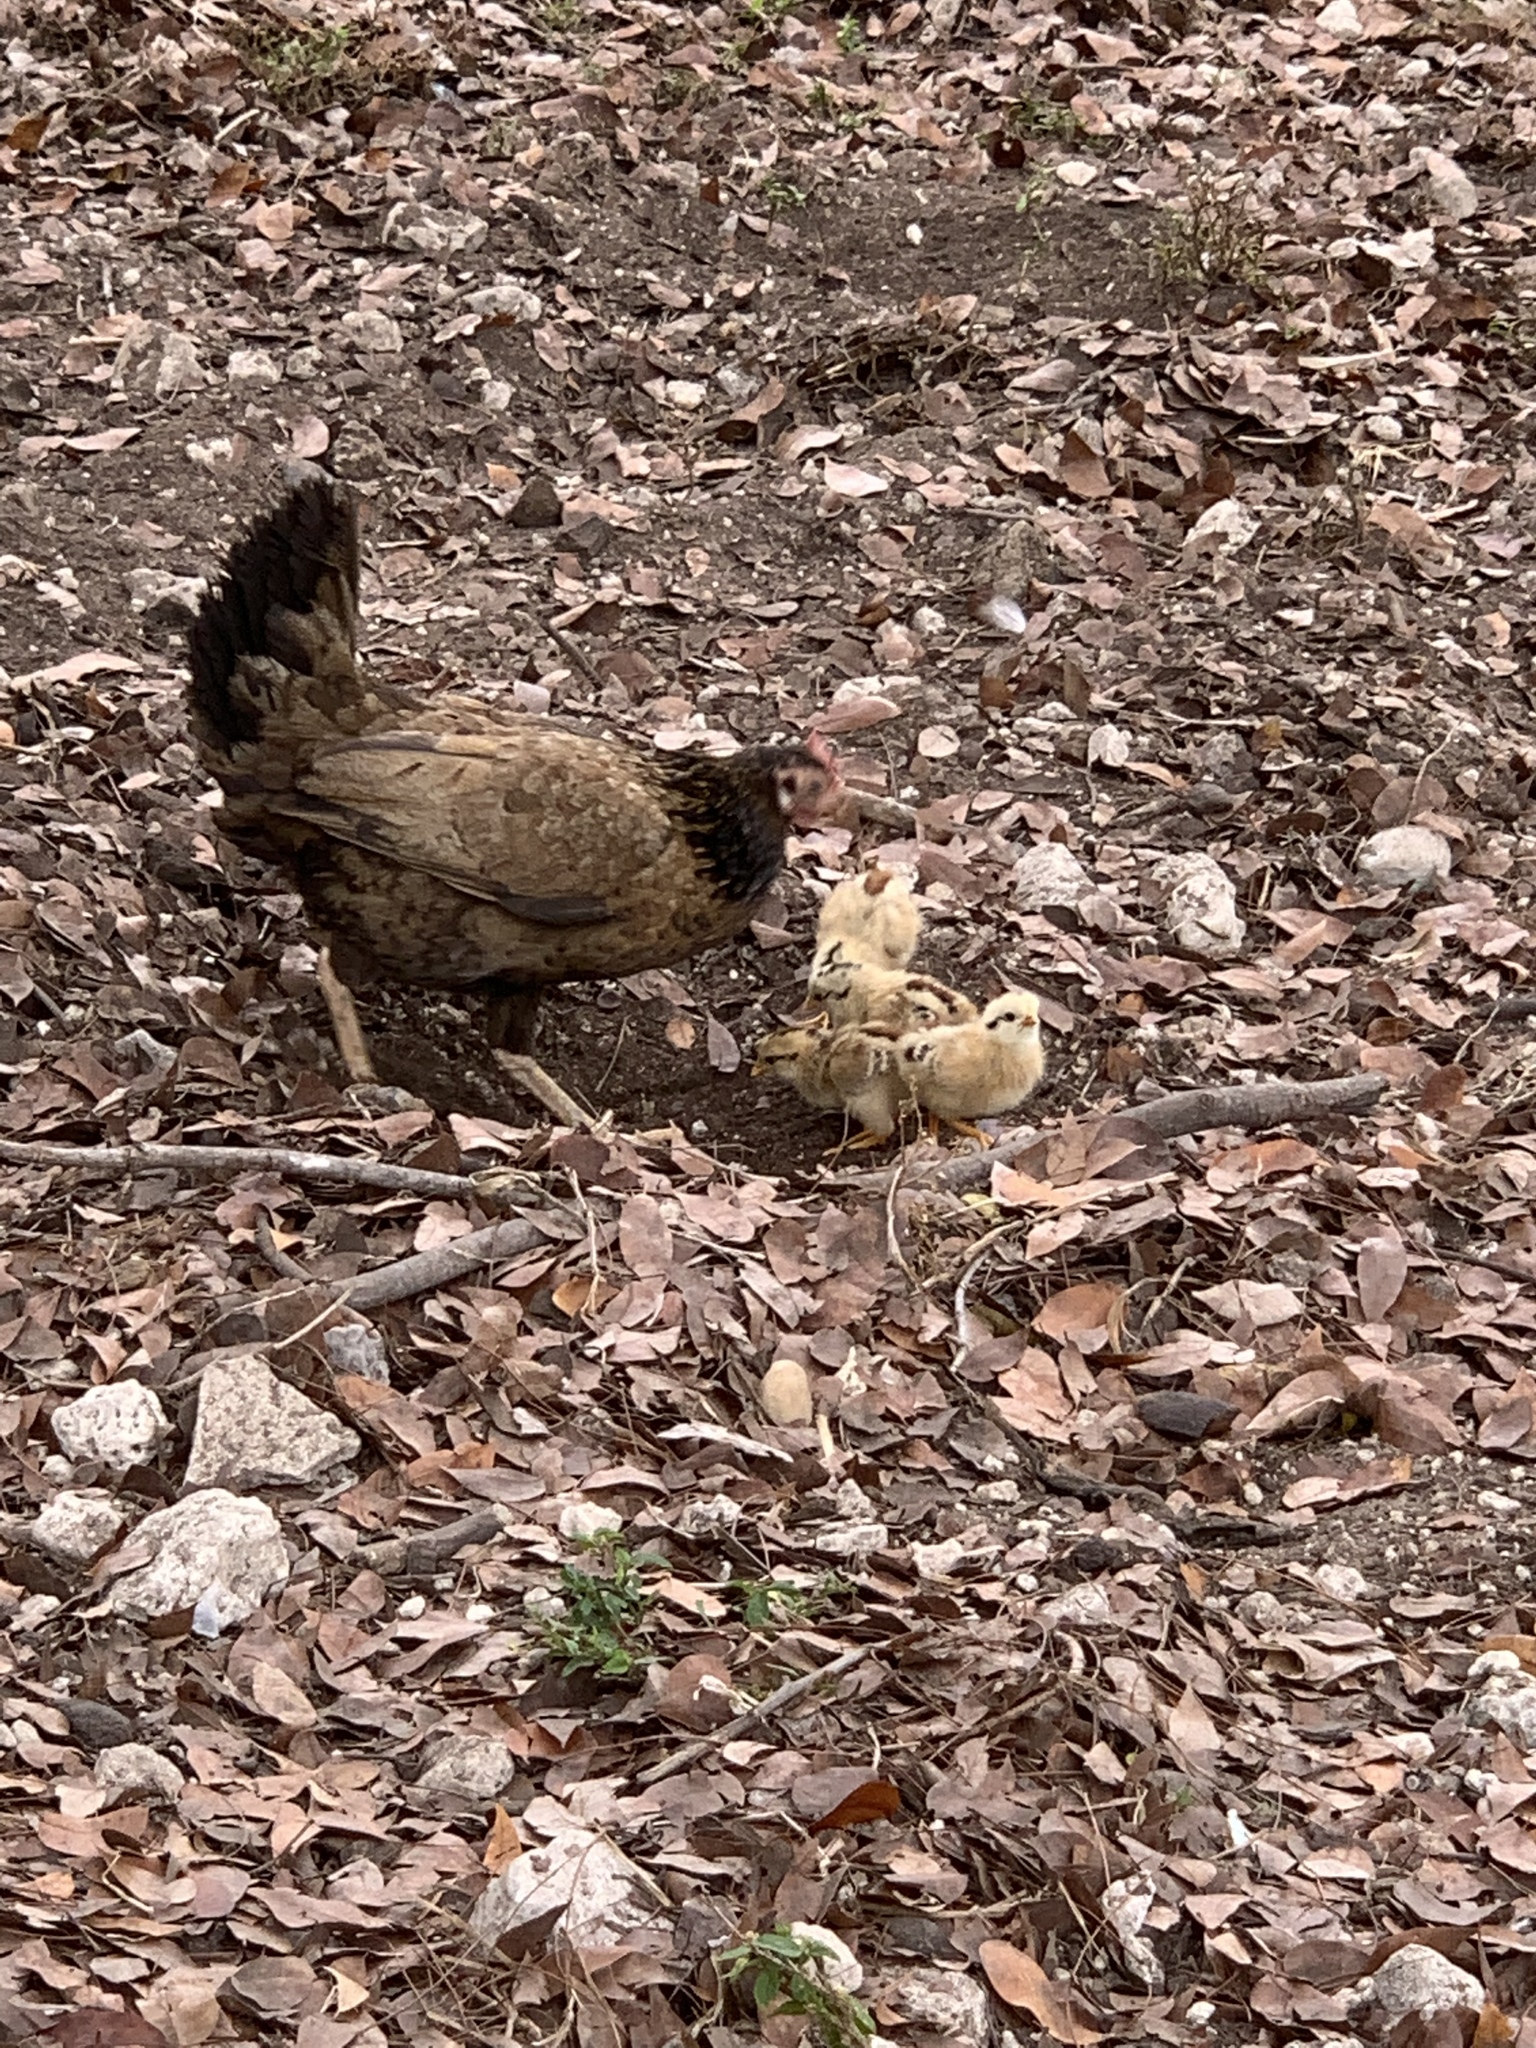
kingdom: Animalia
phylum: Chordata
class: Aves
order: Galliformes
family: Phasianidae
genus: Gallus
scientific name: Gallus gallus
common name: Red junglefowl
